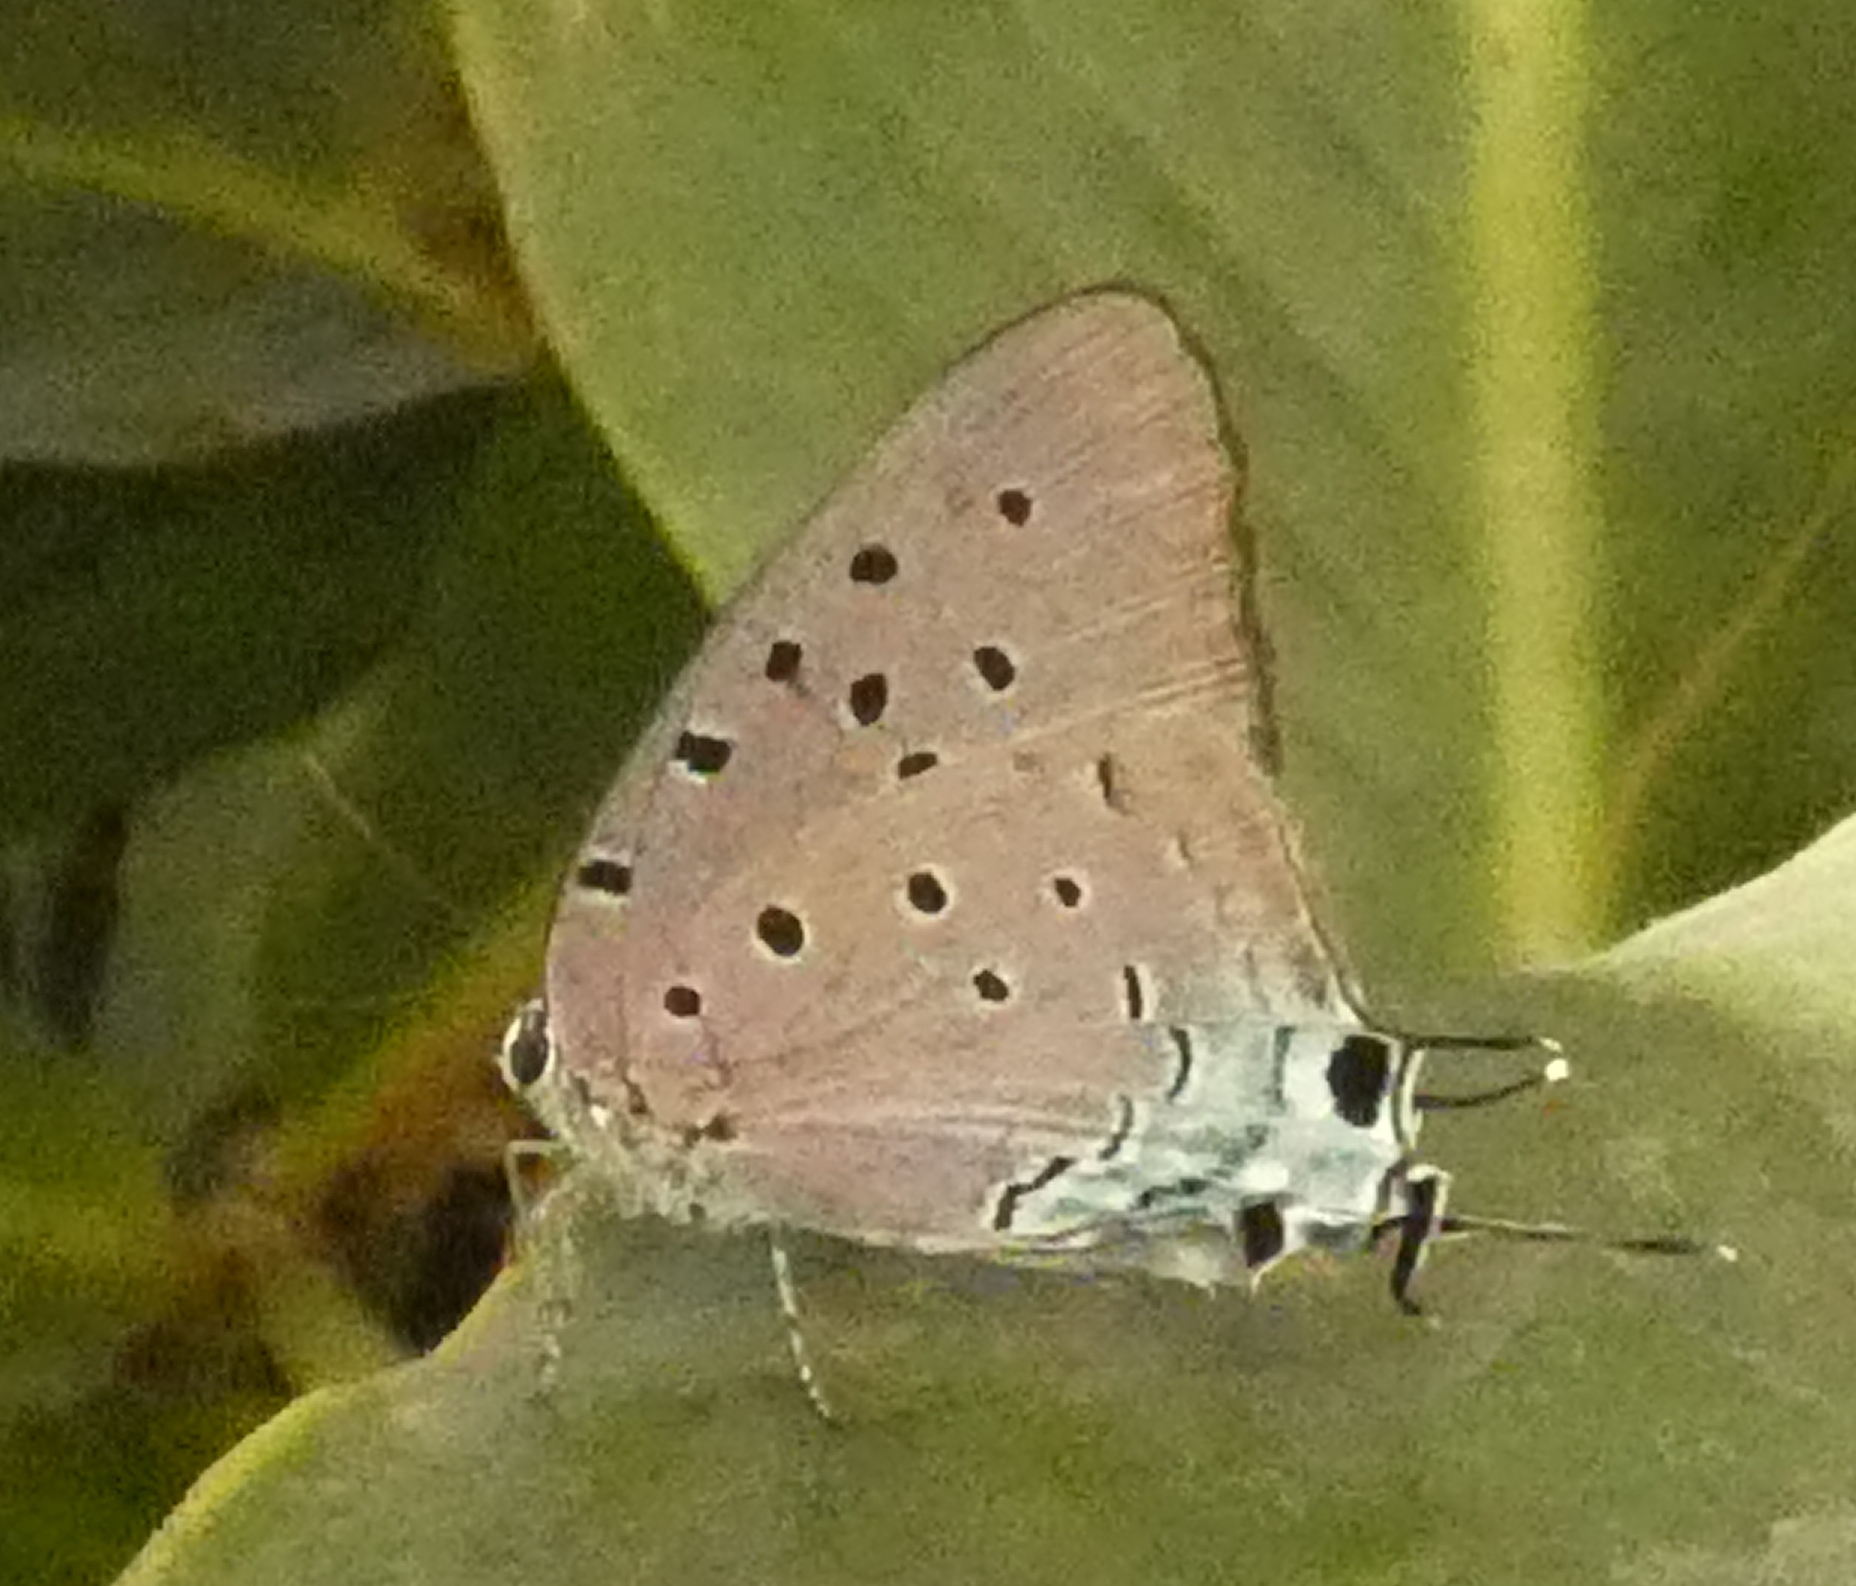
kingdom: Animalia
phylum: Arthropoda
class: Insecta
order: Lepidoptera
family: Lycaenidae
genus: Pseudolycaena
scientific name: Pseudolycaena marsyas
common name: Marsyas hairstreak
